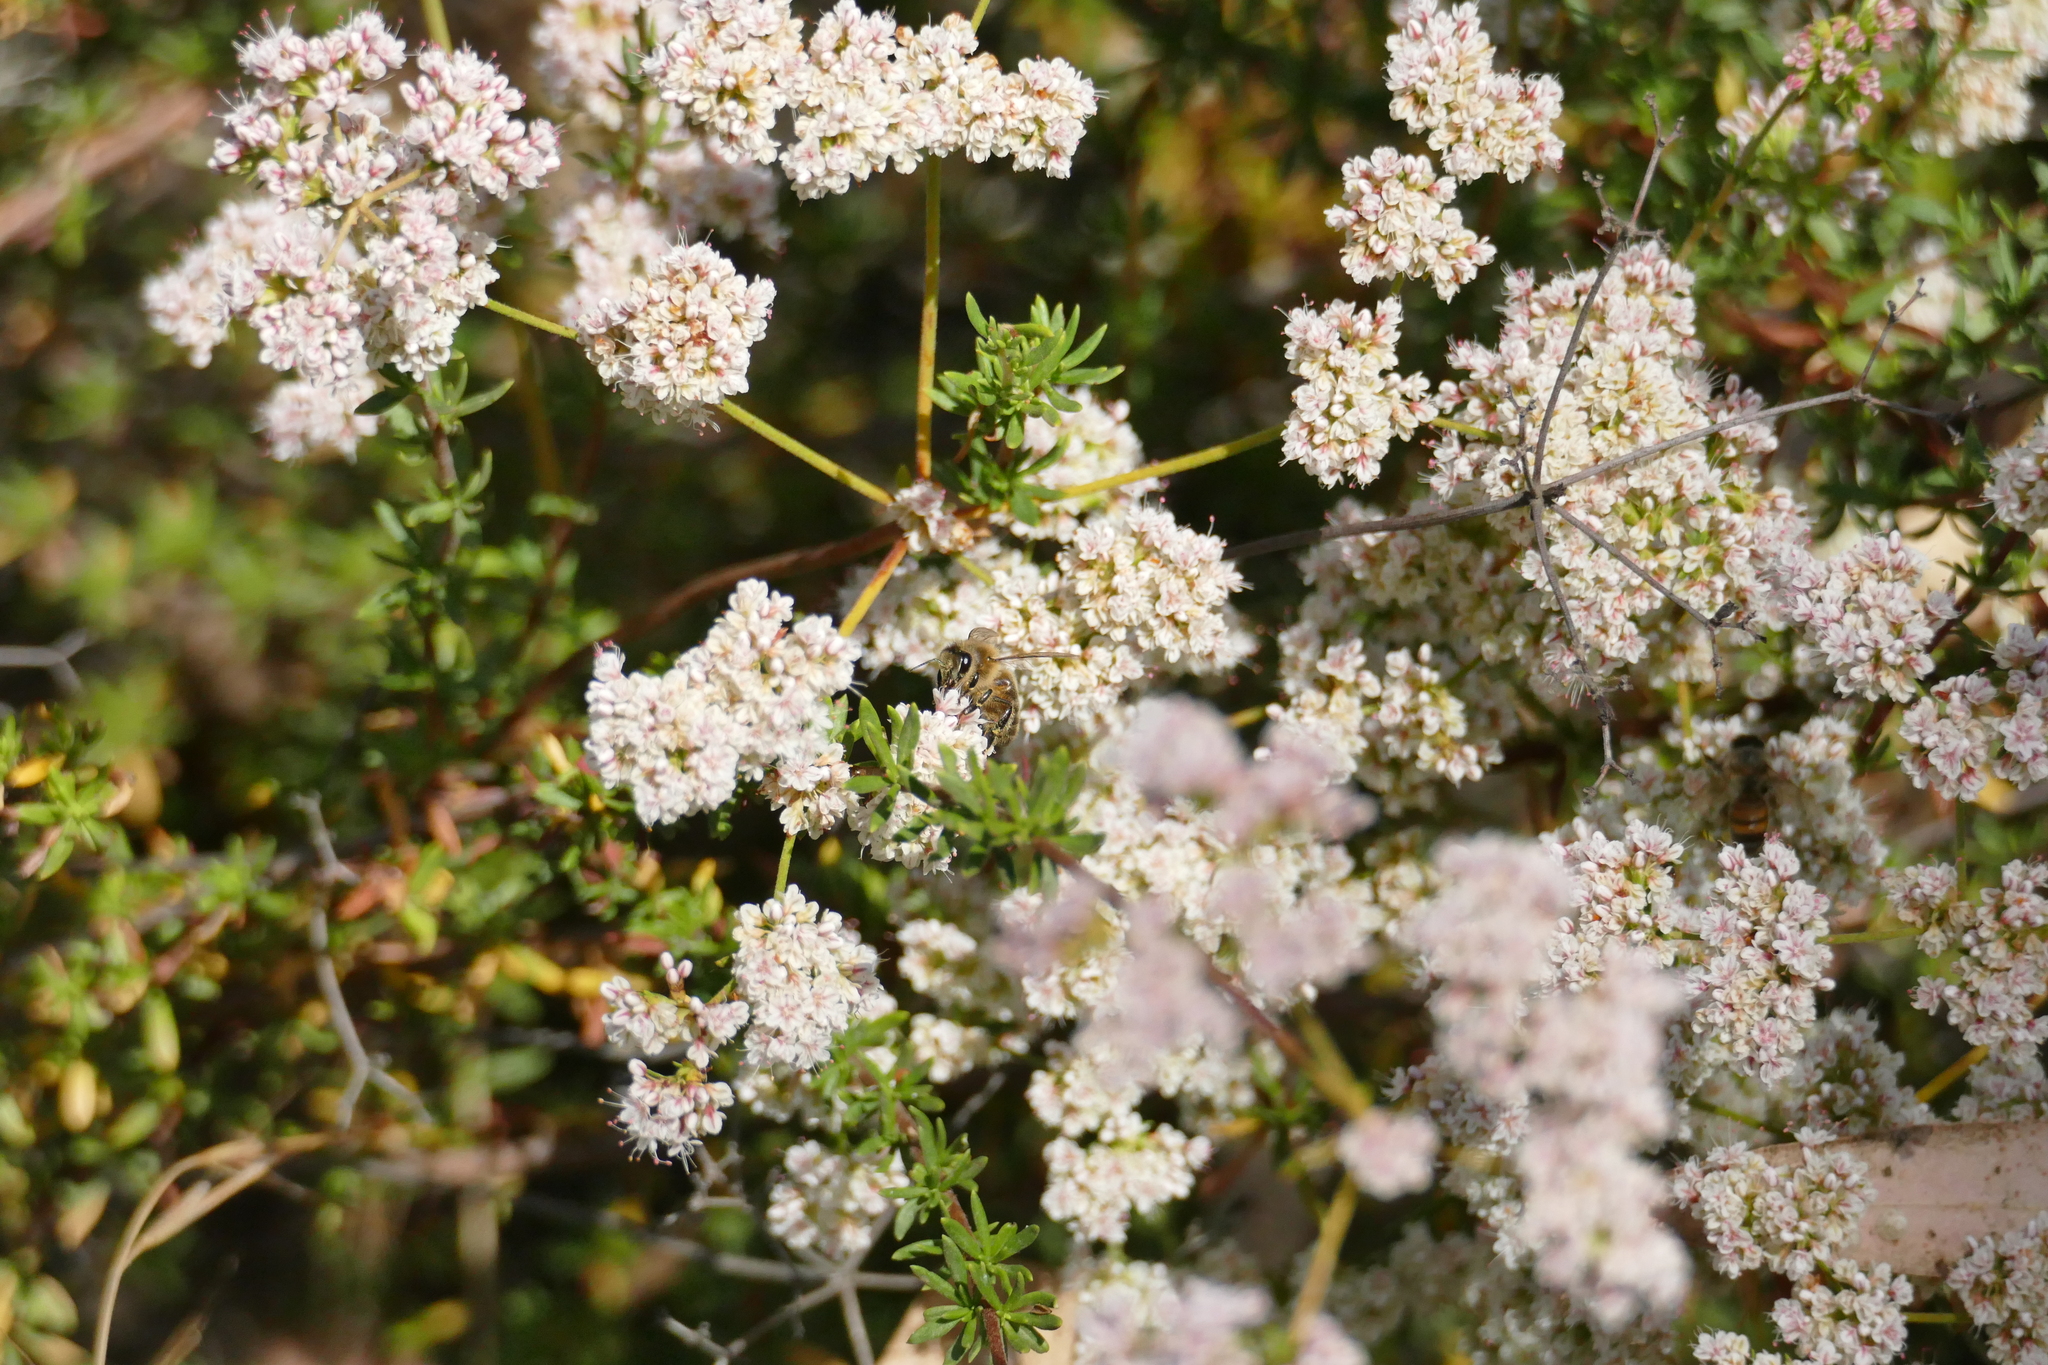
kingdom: Animalia
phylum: Arthropoda
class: Insecta
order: Hymenoptera
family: Apidae
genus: Apis
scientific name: Apis mellifera
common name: Honey bee
